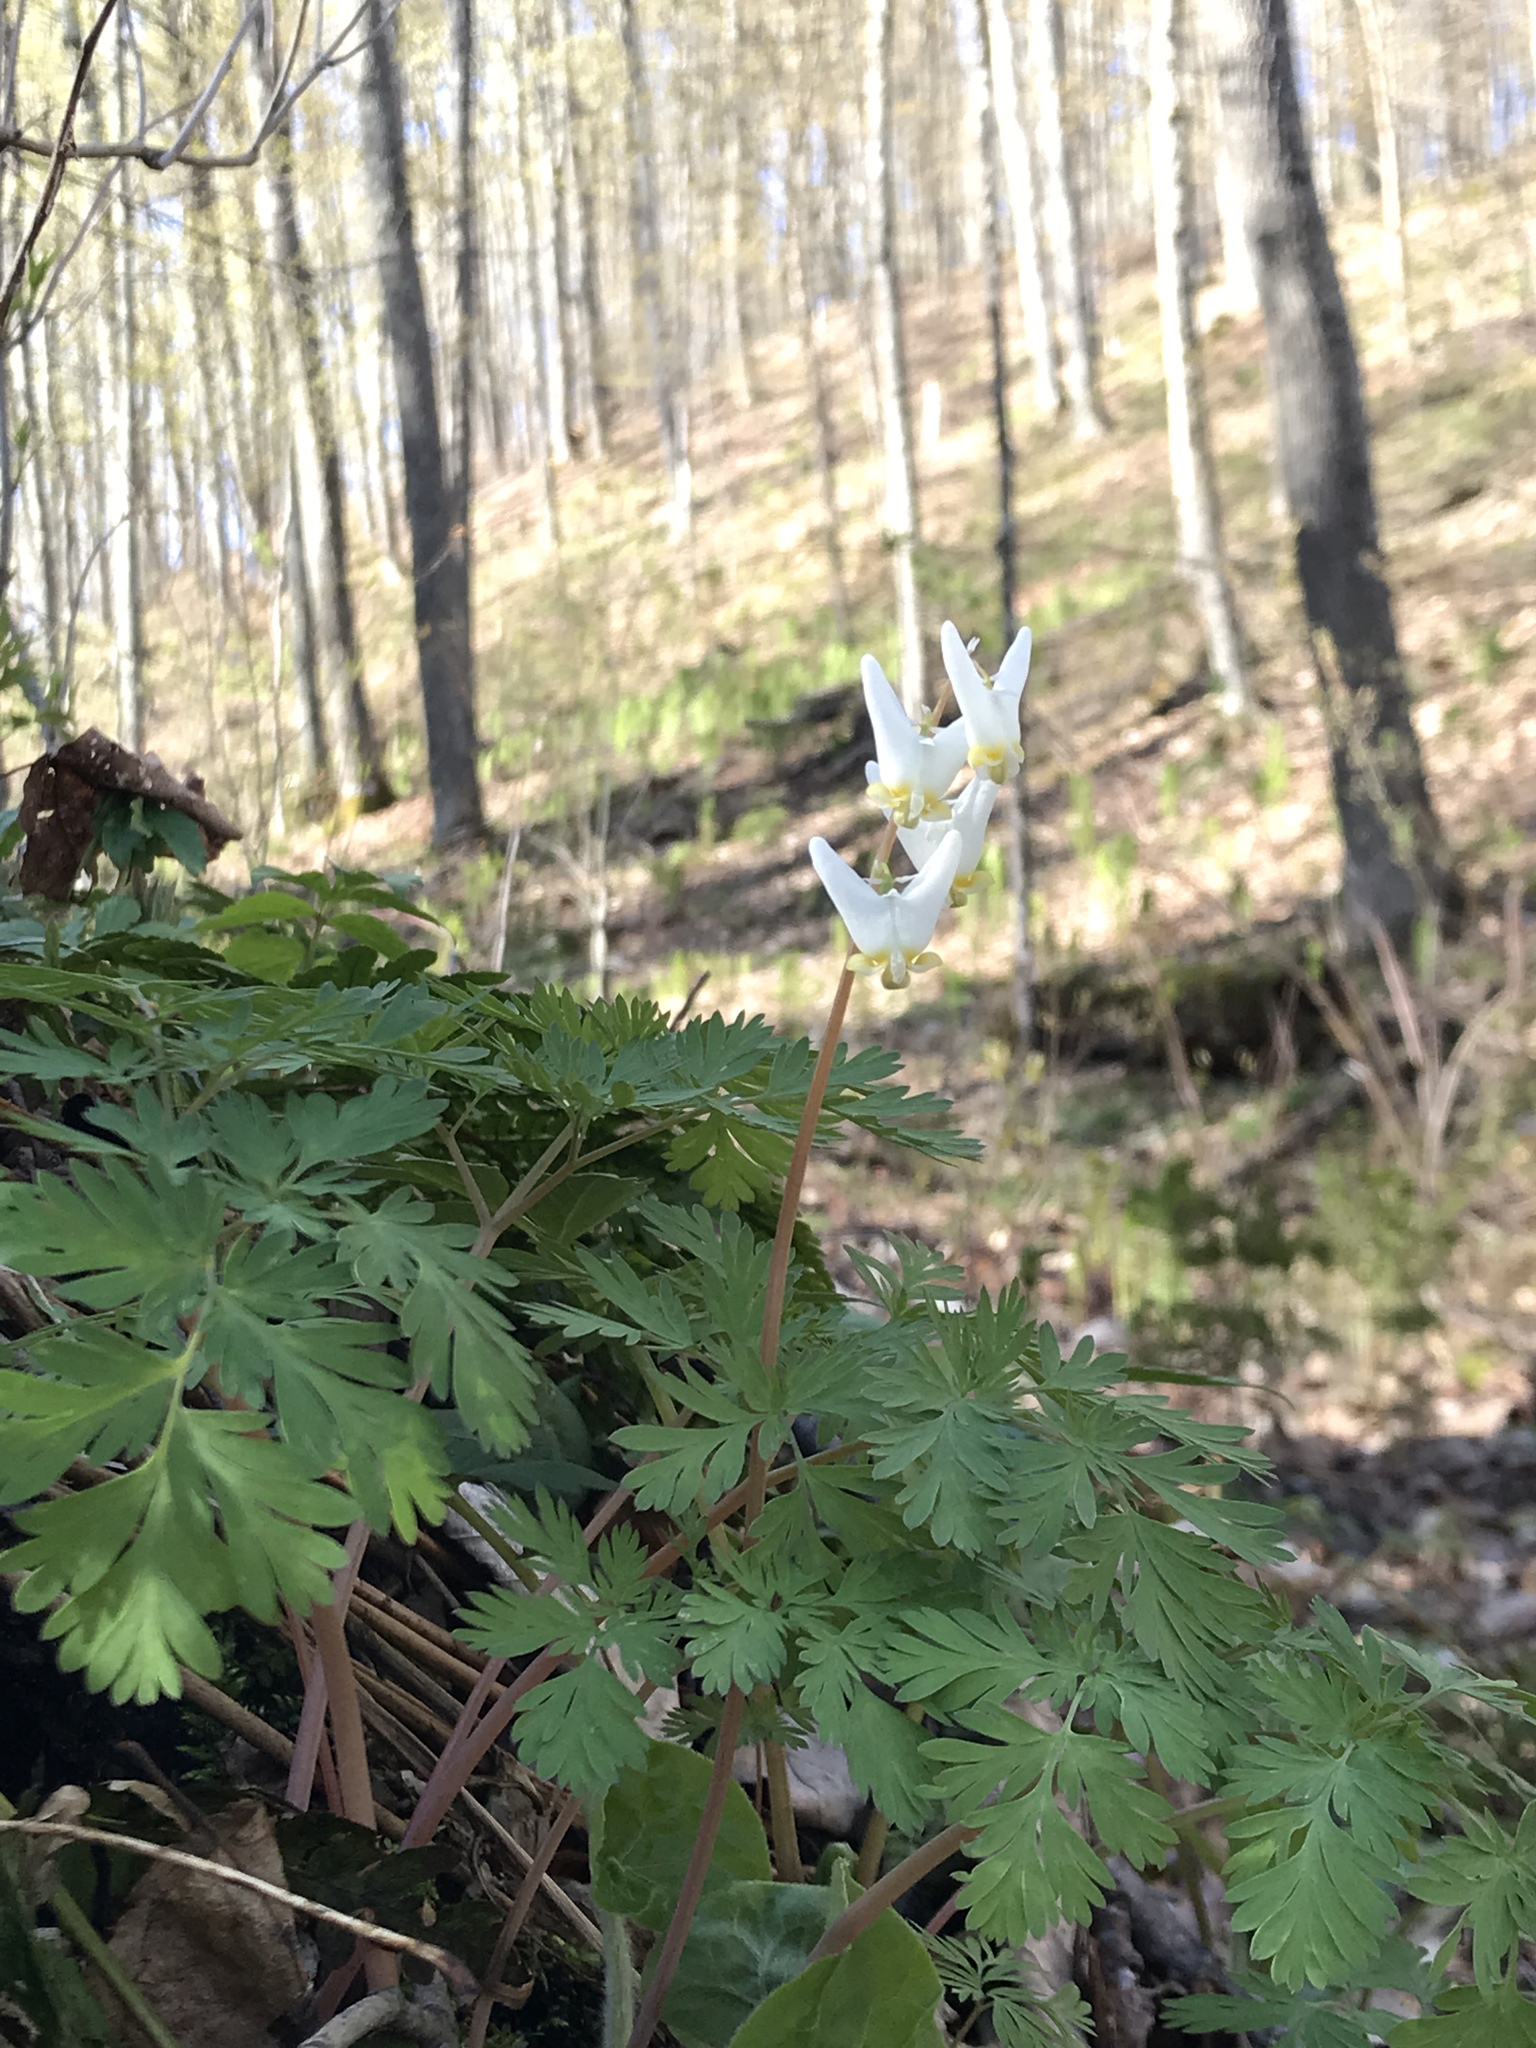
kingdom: Plantae
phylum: Tracheophyta
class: Magnoliopsida
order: Ranunculales
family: Papaveraceae
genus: Dicentra
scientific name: Dicentra cucullaria
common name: Dutchman's breeches
